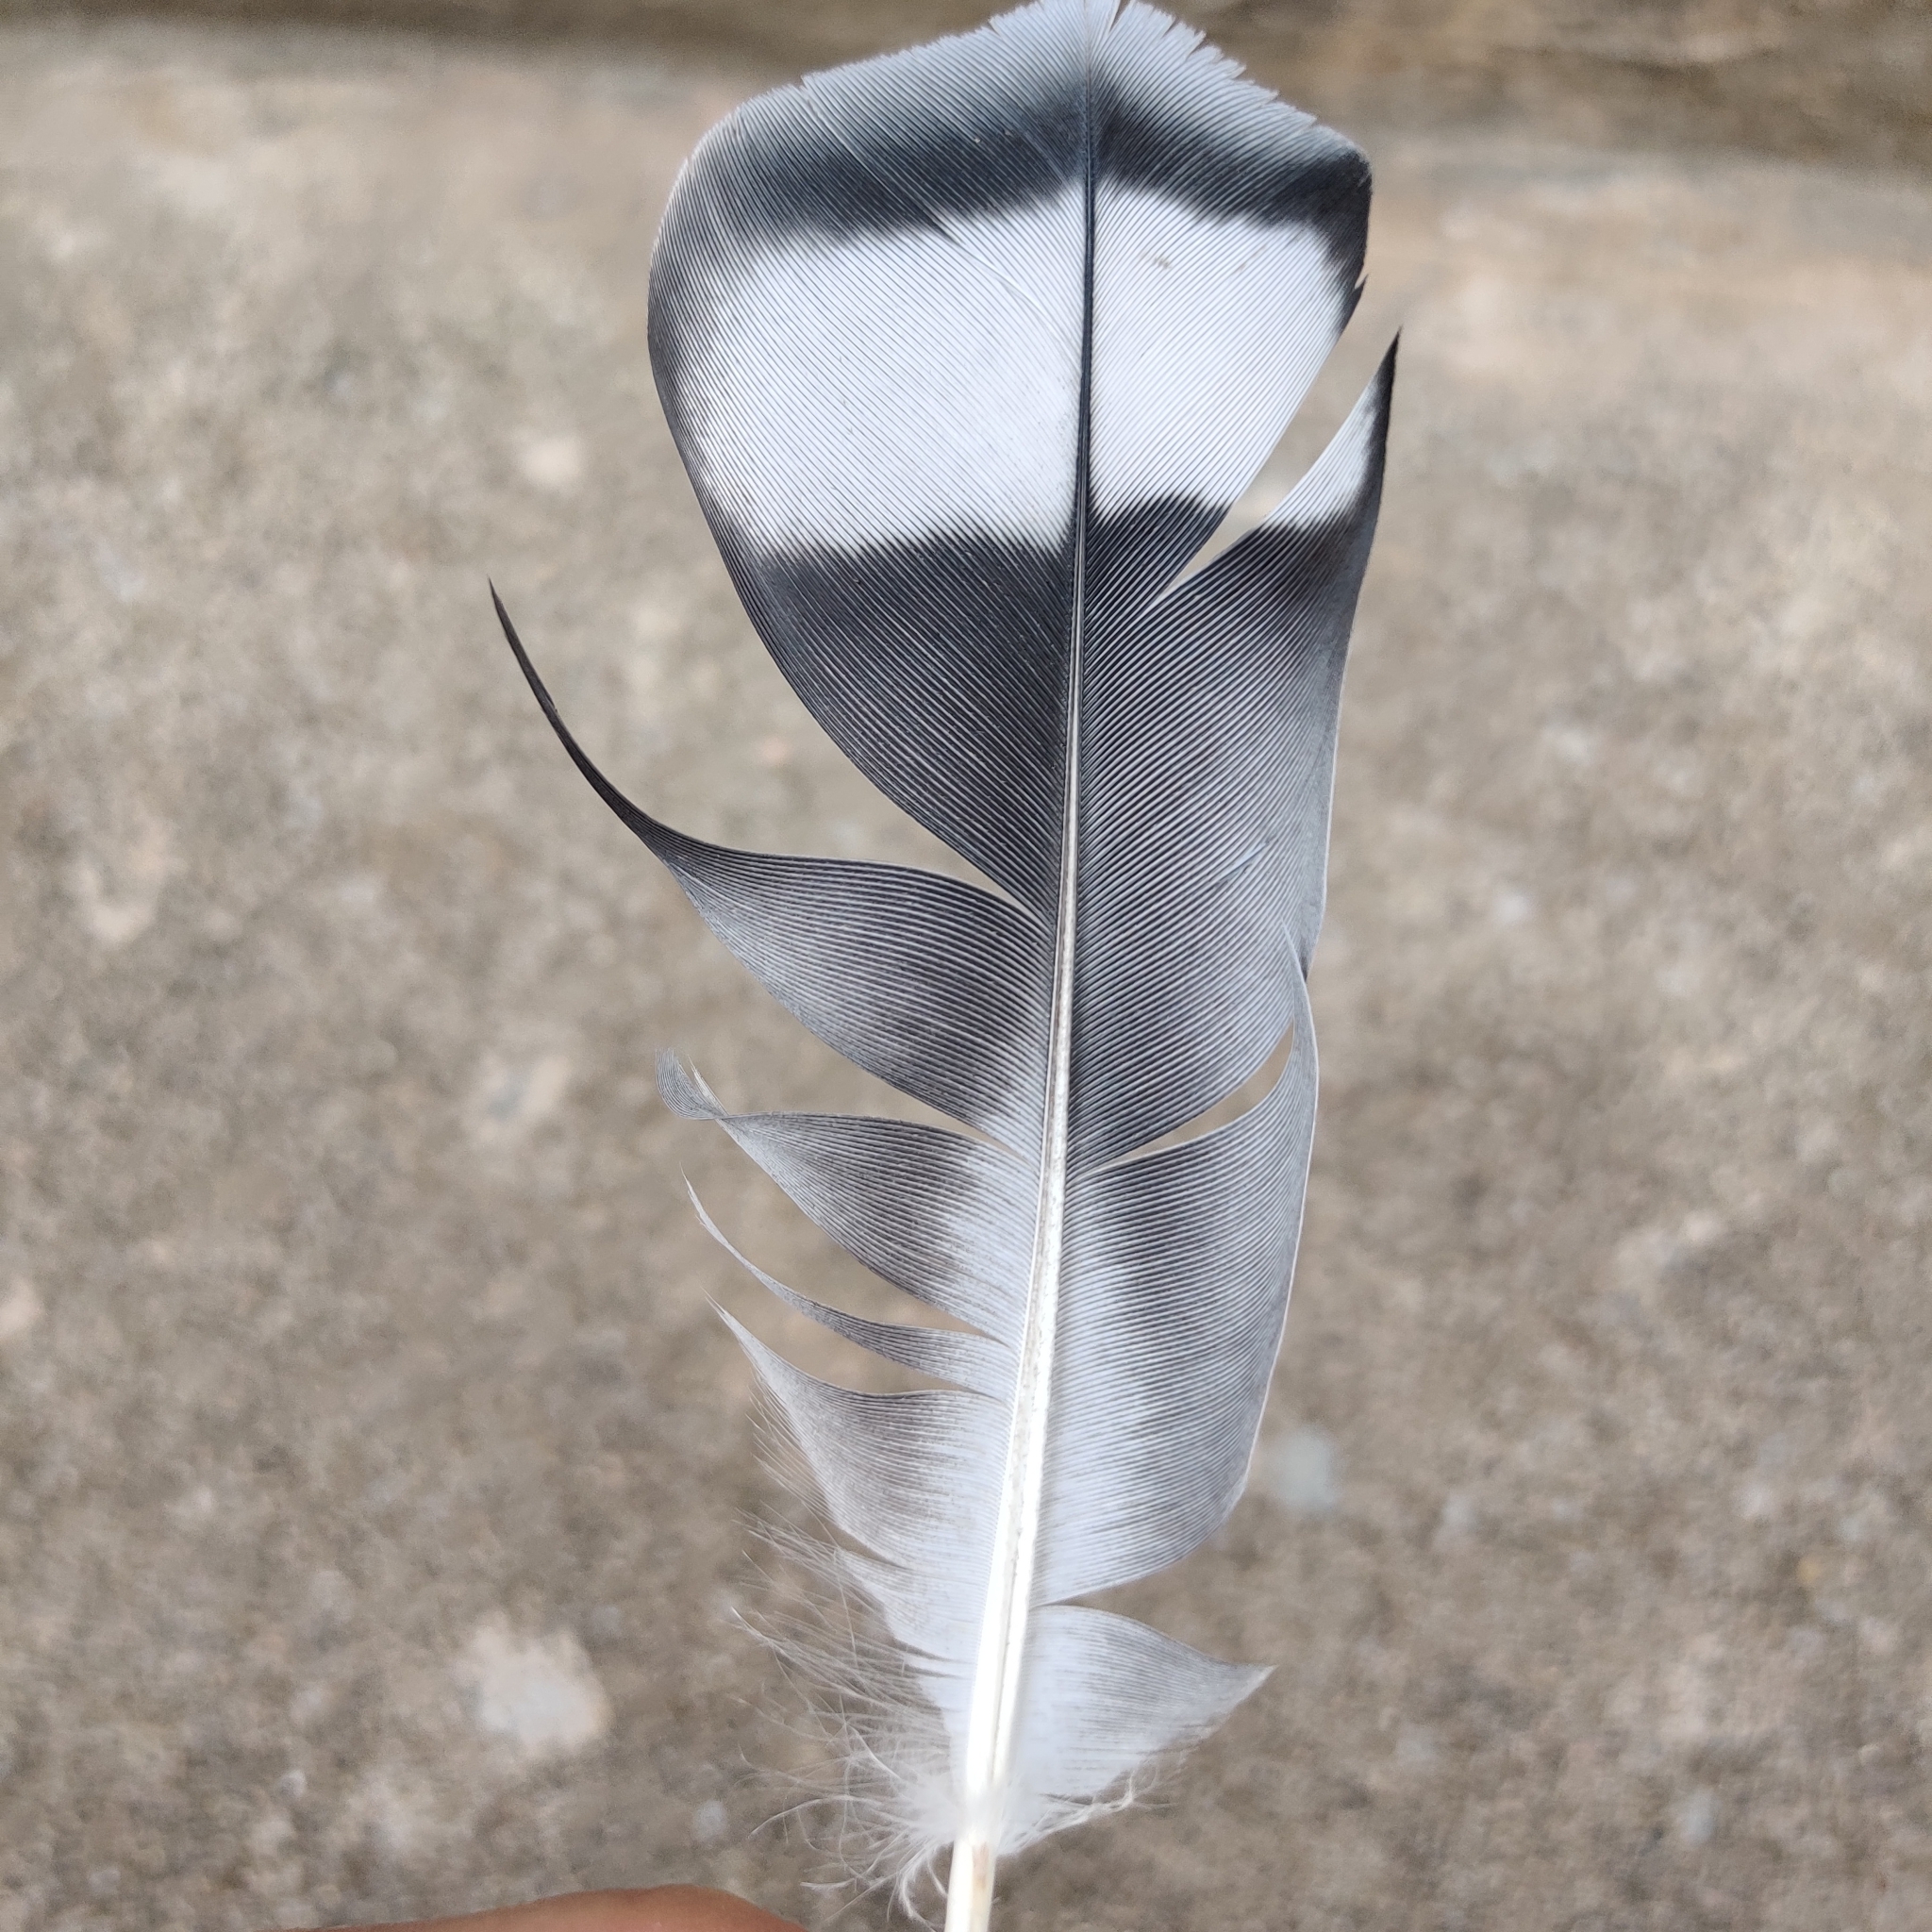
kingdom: Animalia
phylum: Chordata
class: Aves
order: Columbiformes
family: Columbidae
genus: Columba
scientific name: Columba livia
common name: Rock pigeon
